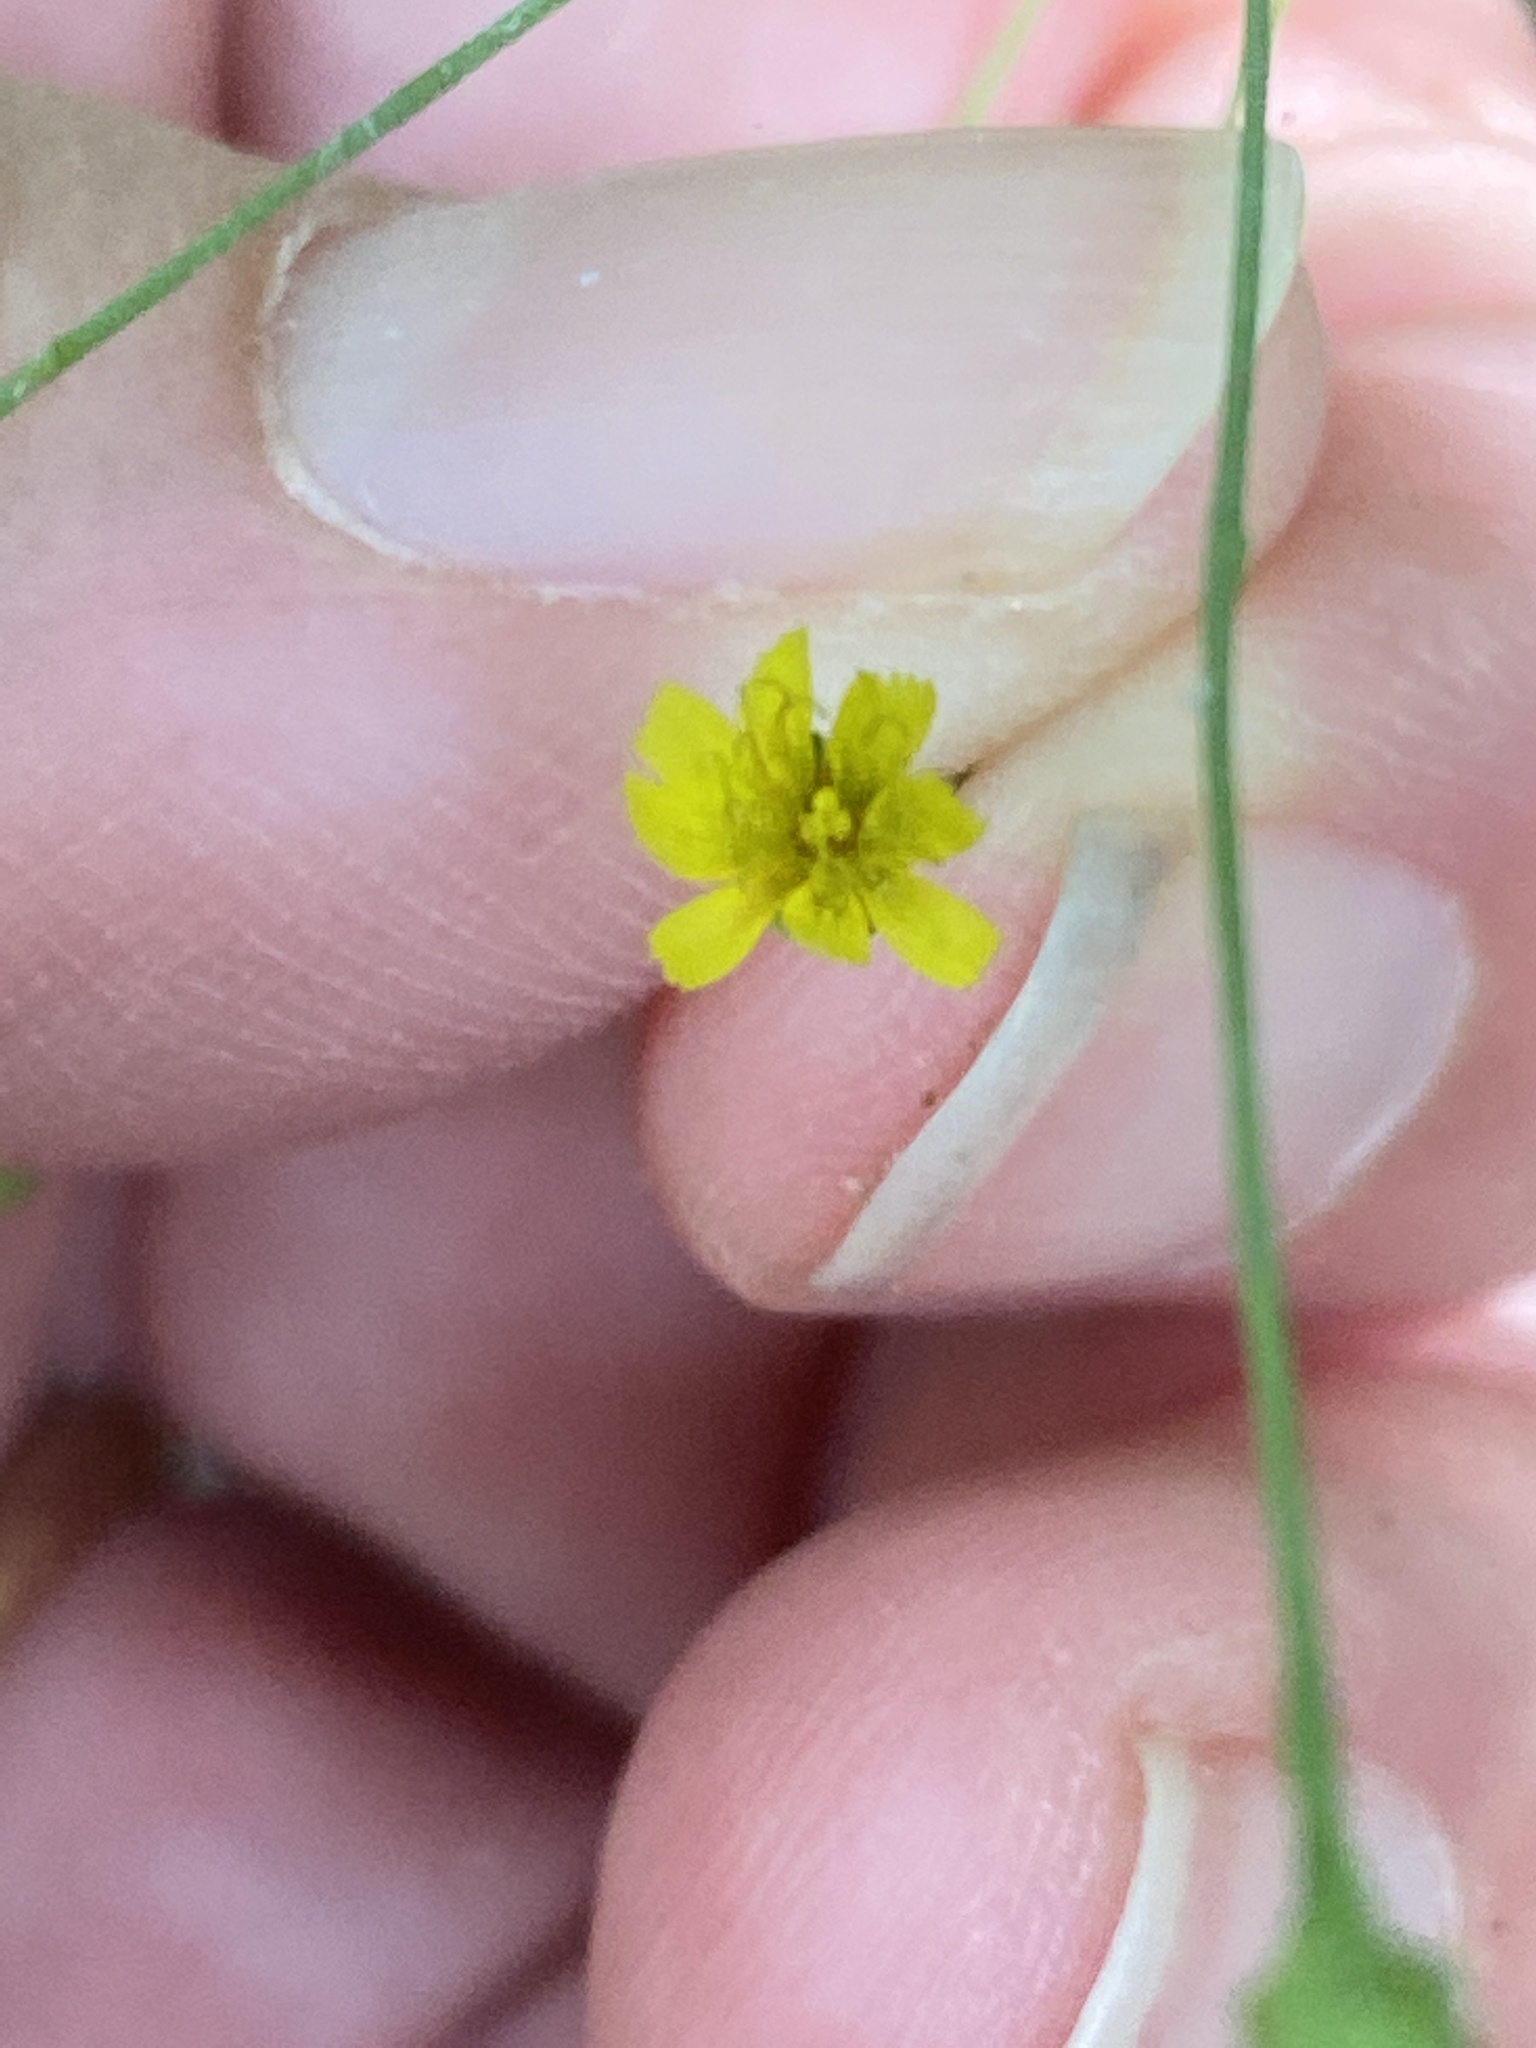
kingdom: Plantae
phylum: Tracheophyta
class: Magnoliopsida
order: Asterales
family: Asteraceae
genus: Hieracium
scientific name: Hieracium paniculatum
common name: Allegheny hawkweed
